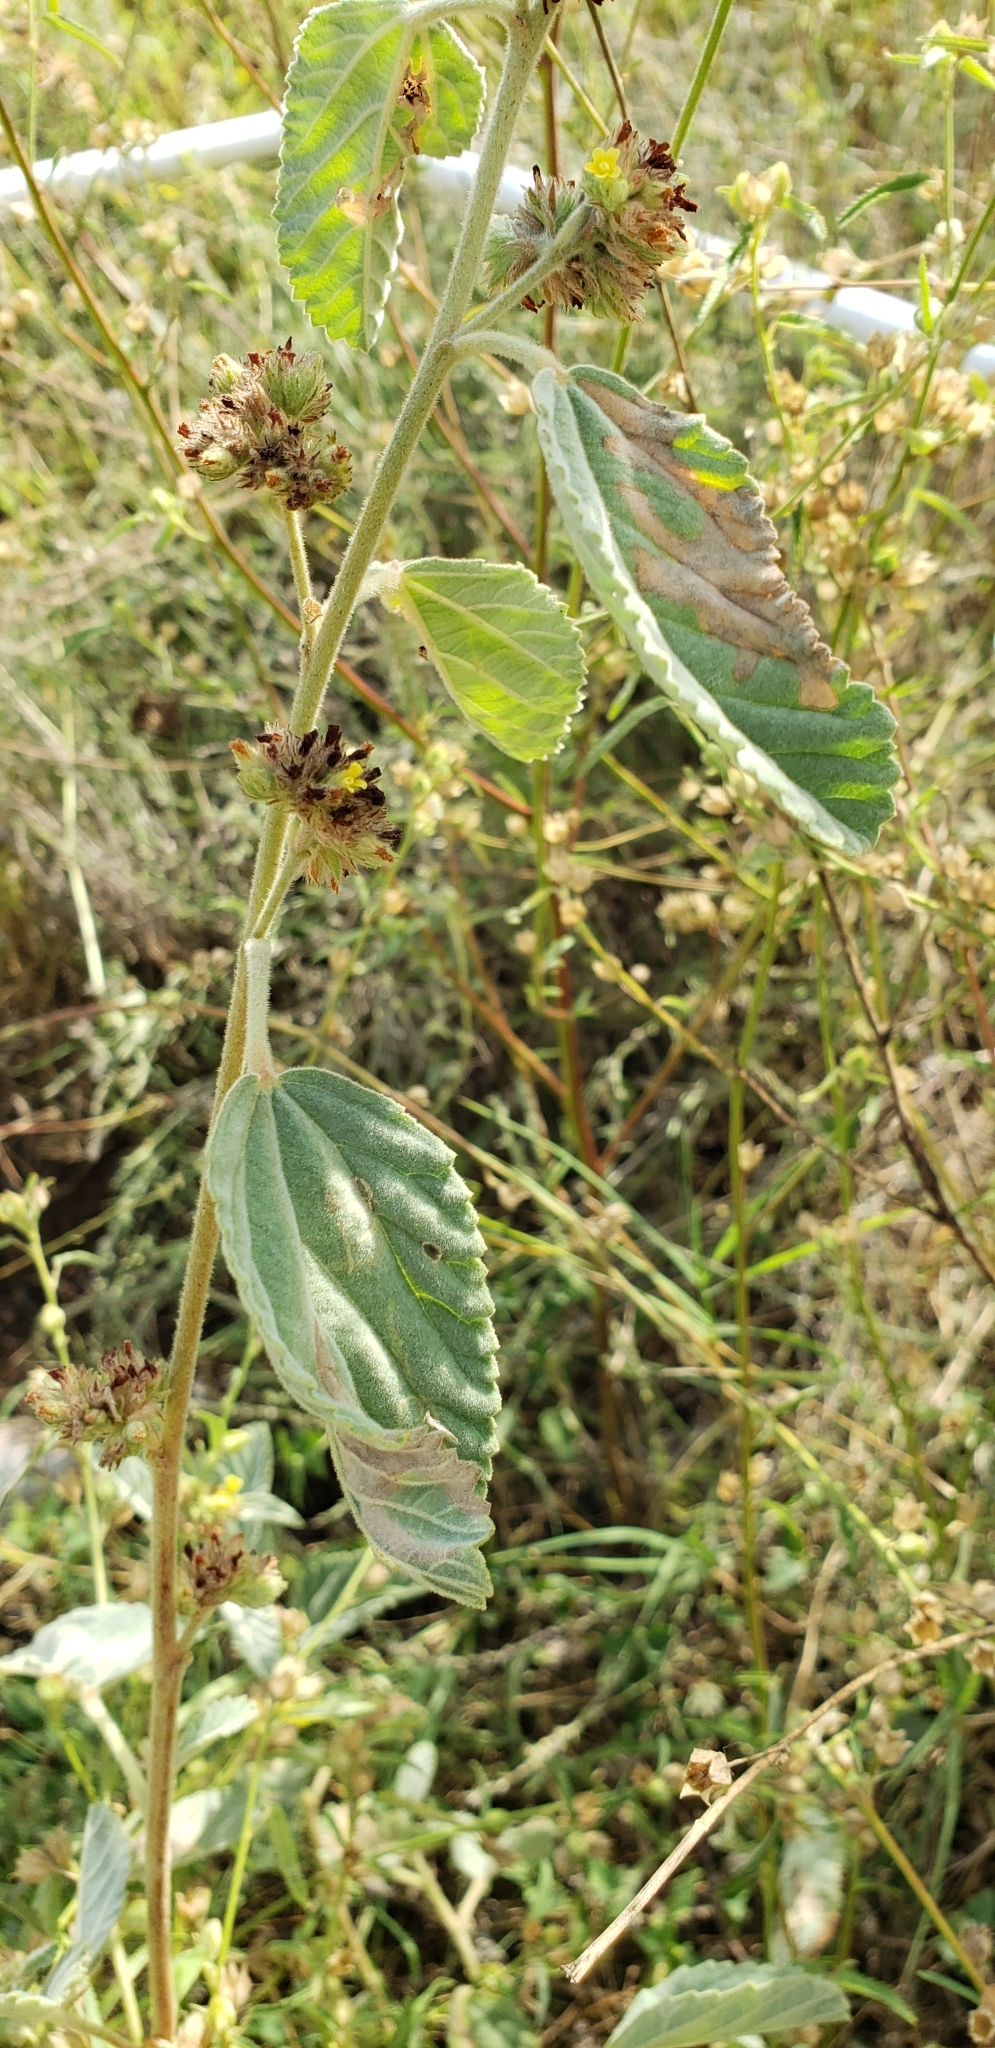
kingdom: Plantae
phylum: Tracheophyta
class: Magnoliopsida
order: Malvales
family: Malvaceae
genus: Waltheria
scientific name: Waltheria indica
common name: Leather-coat
